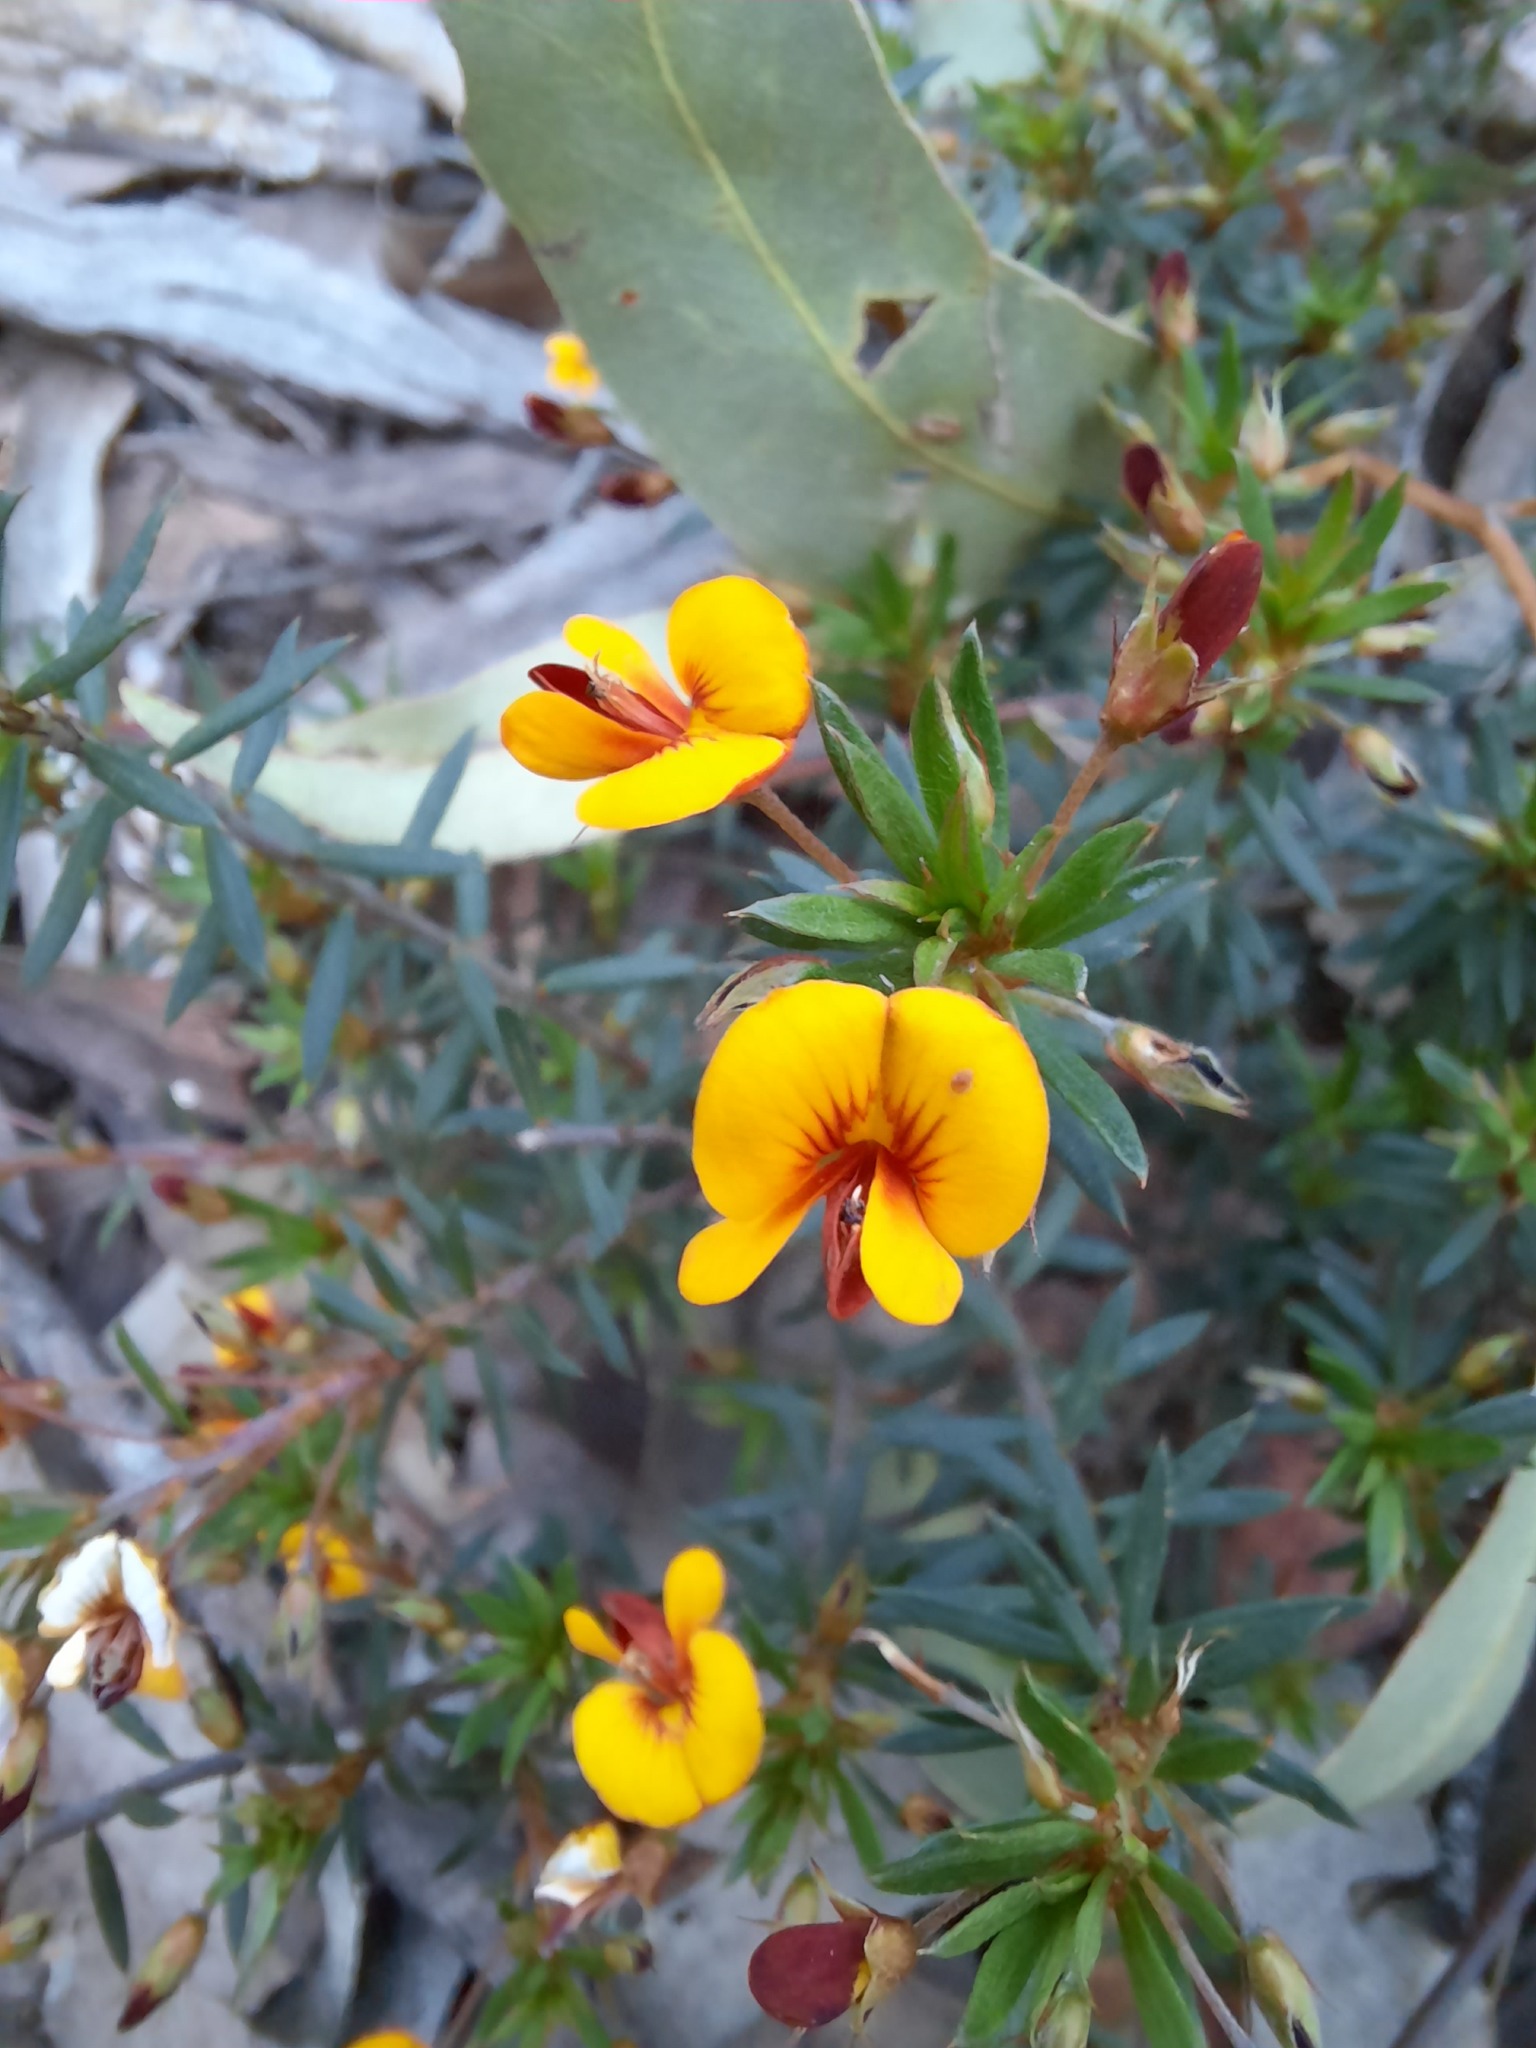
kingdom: Plantae
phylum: Tracheophyta
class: Magnoliopsida
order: Fabales
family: Fabaceae
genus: Pultenaea
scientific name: Pultenaea pedunculata
